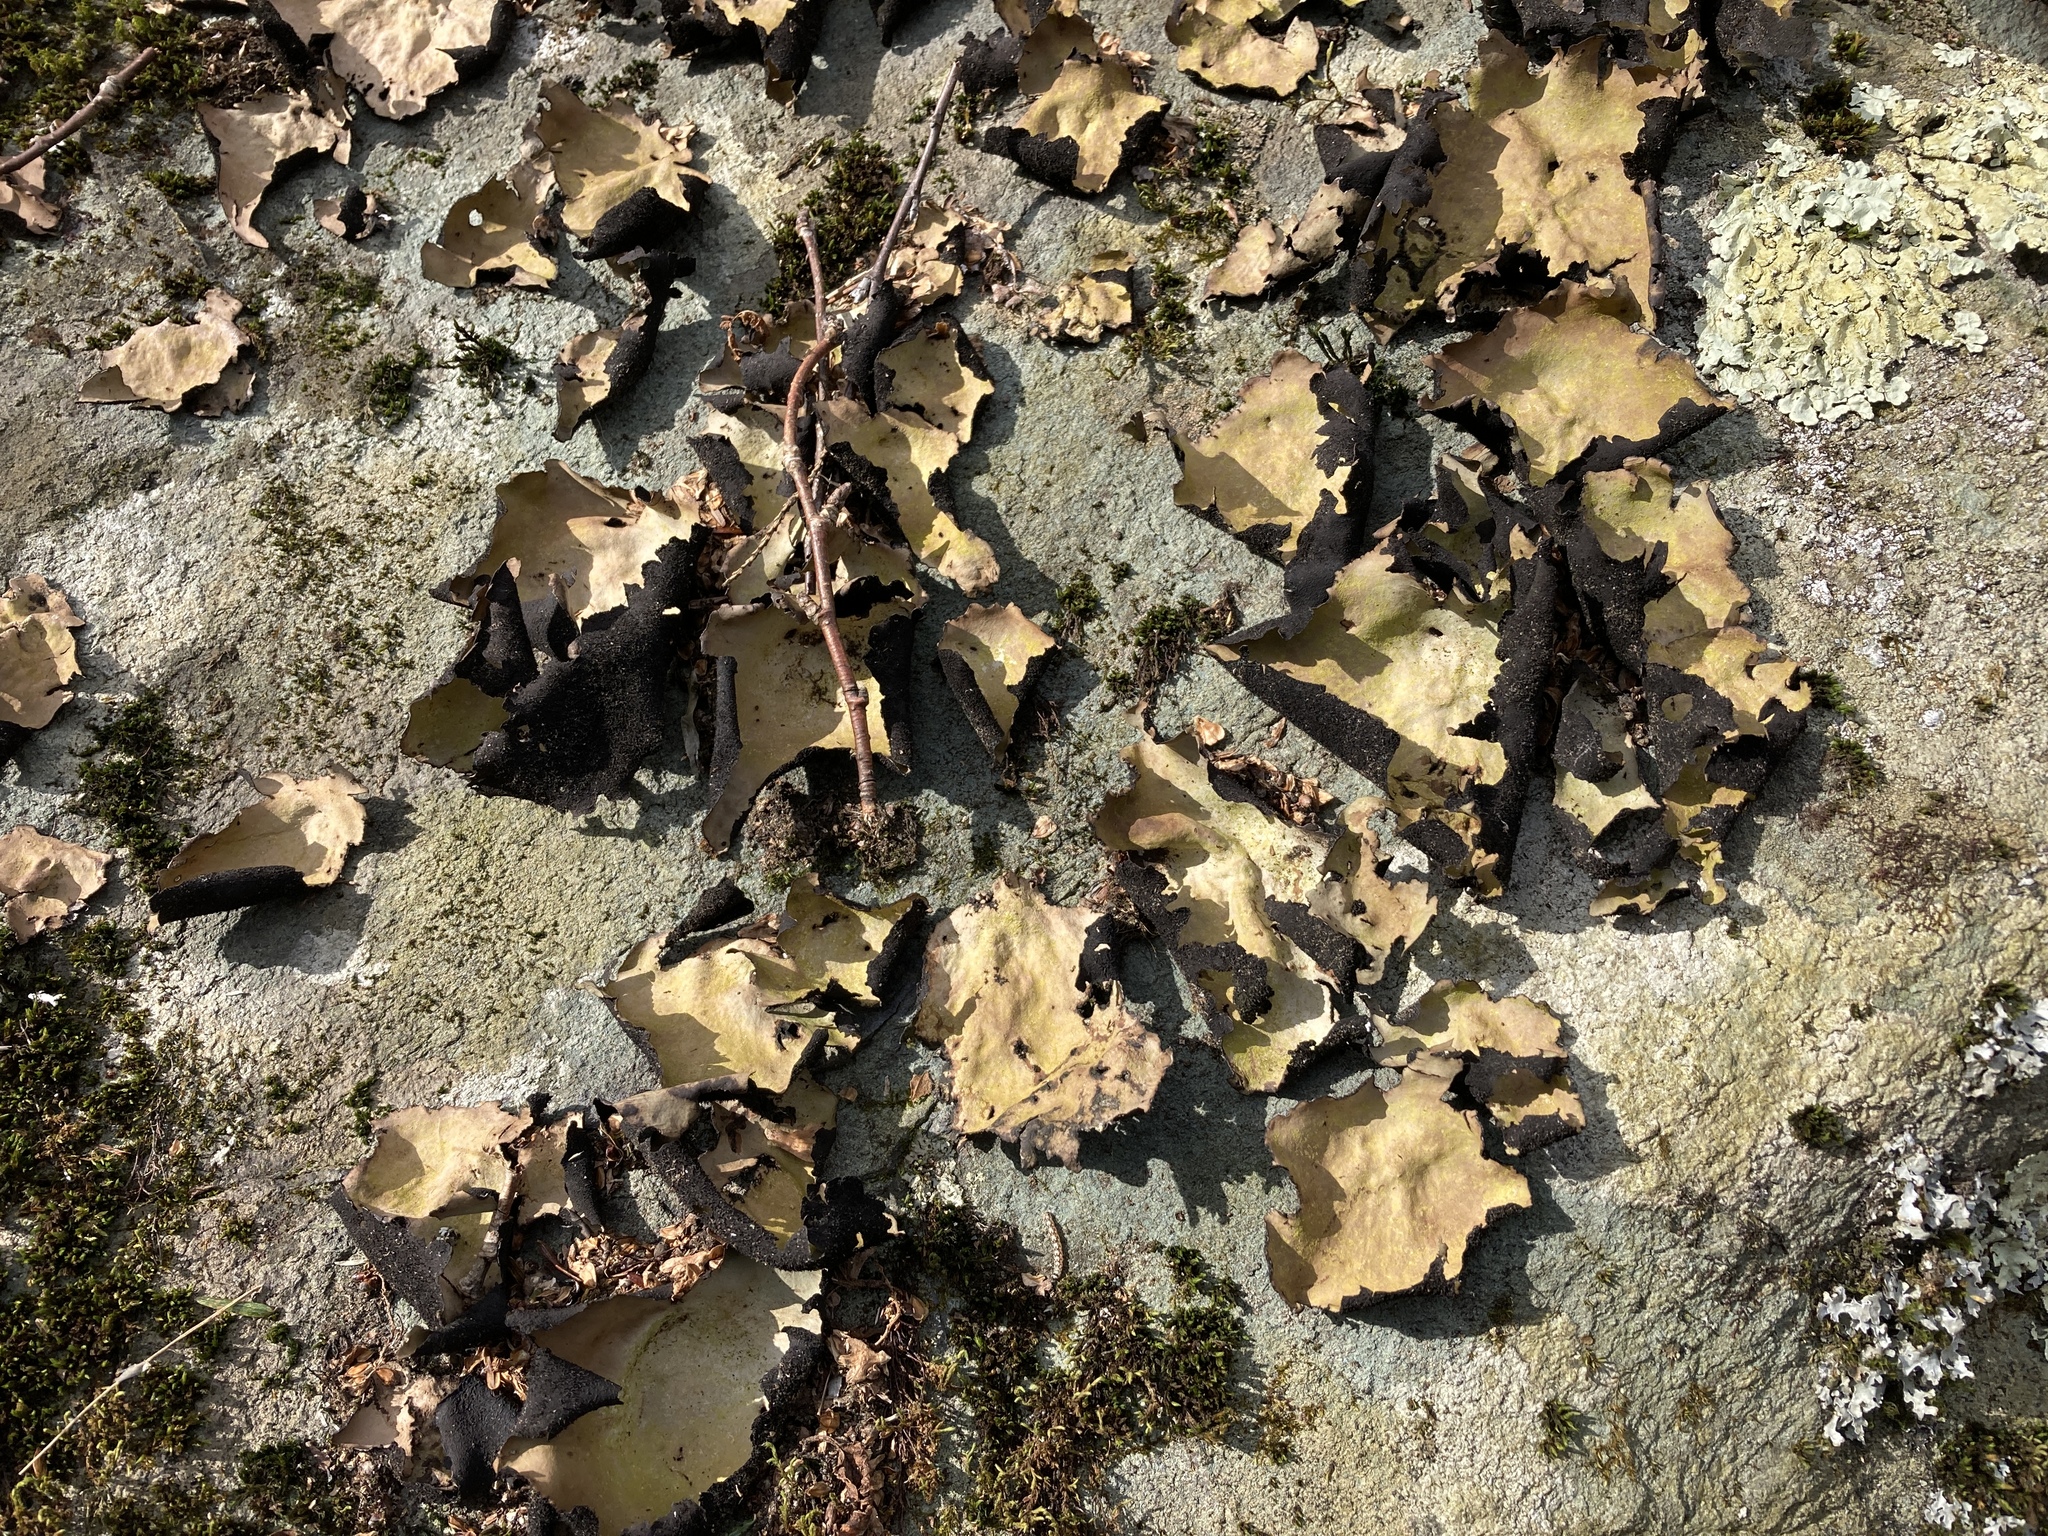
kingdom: Fungi
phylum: Ascomycota
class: Lecanoromycetes
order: Umbilicariales
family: Umbilicariaceae
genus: Umbilicaria
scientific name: Umbilicaria mammulata
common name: Smooth rock tripe
